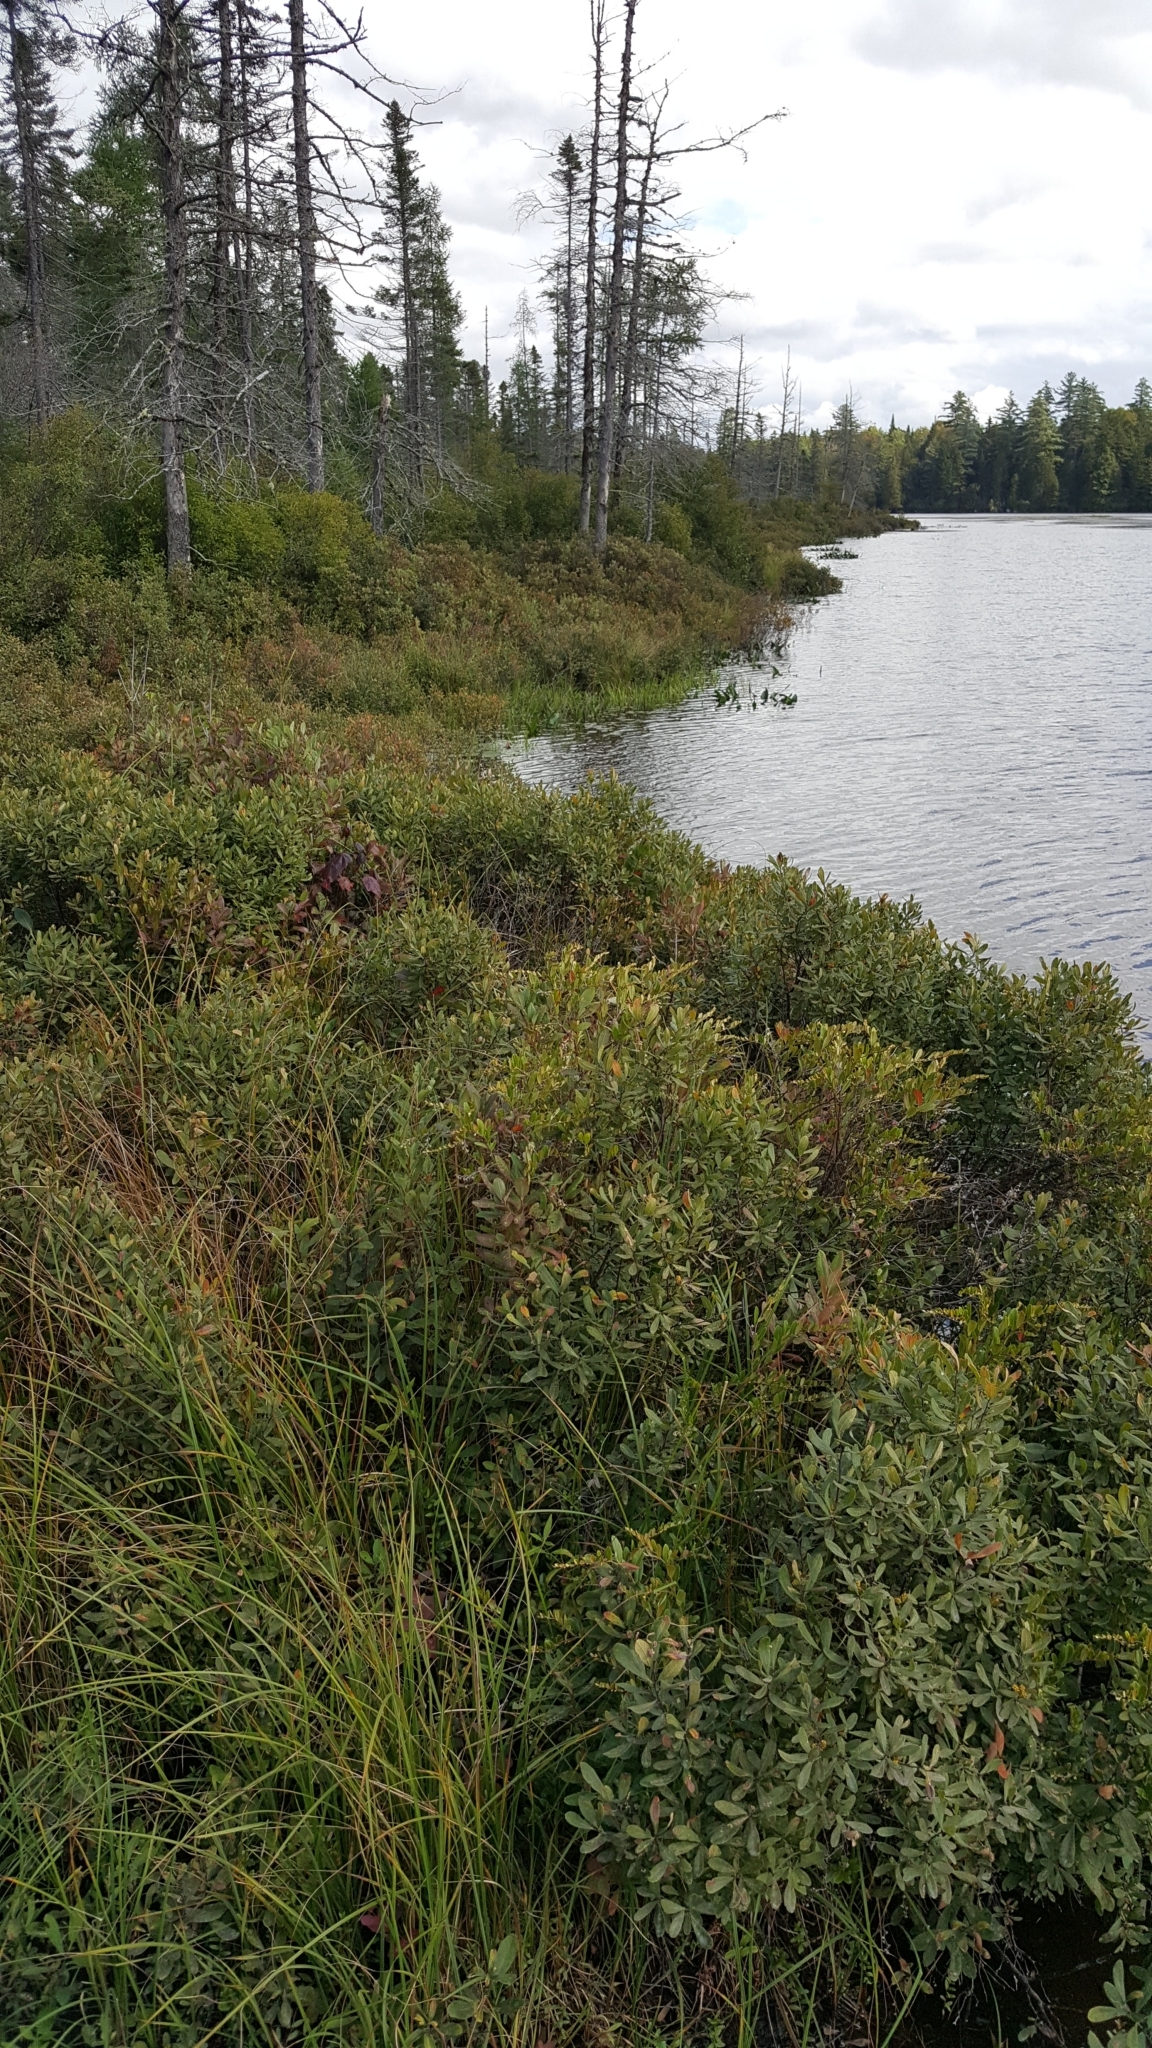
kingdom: Plantae
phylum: Tracheophyta
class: Magnoliopsida
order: Fagales
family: Myricaceae
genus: Myrica
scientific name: Myrica gale
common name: Sweet gale
